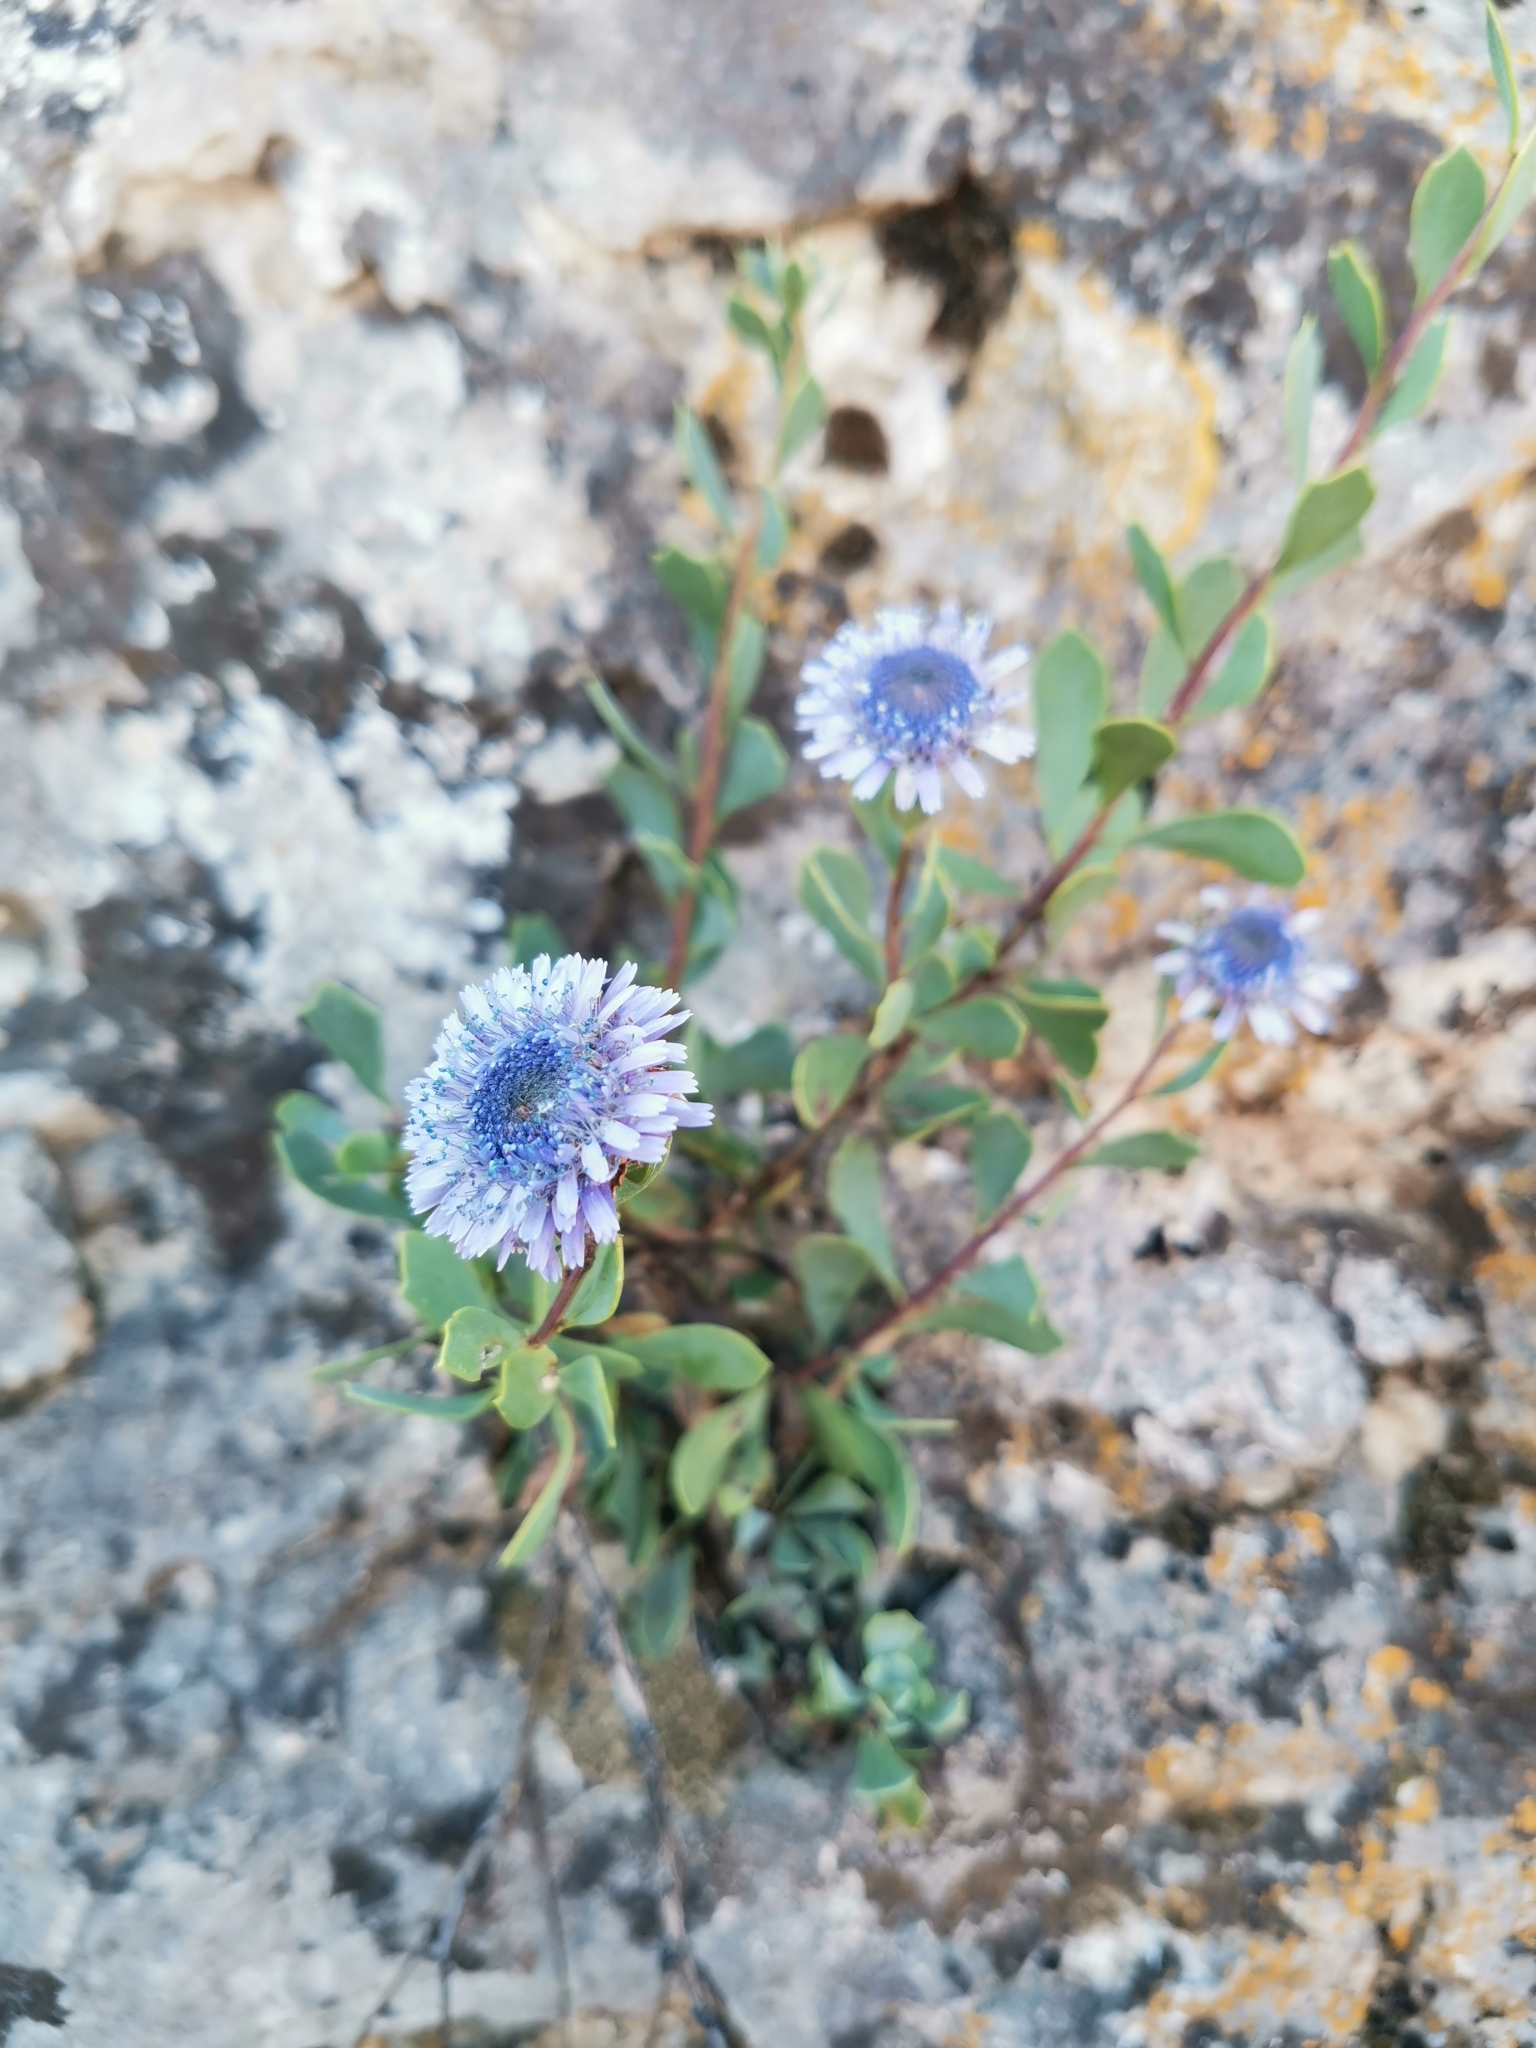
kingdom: Plantae
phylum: Tracheophyta
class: Magnoliopsida
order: Lamiales
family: Plantaginaceae
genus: Globularia
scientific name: Globularia alypum
